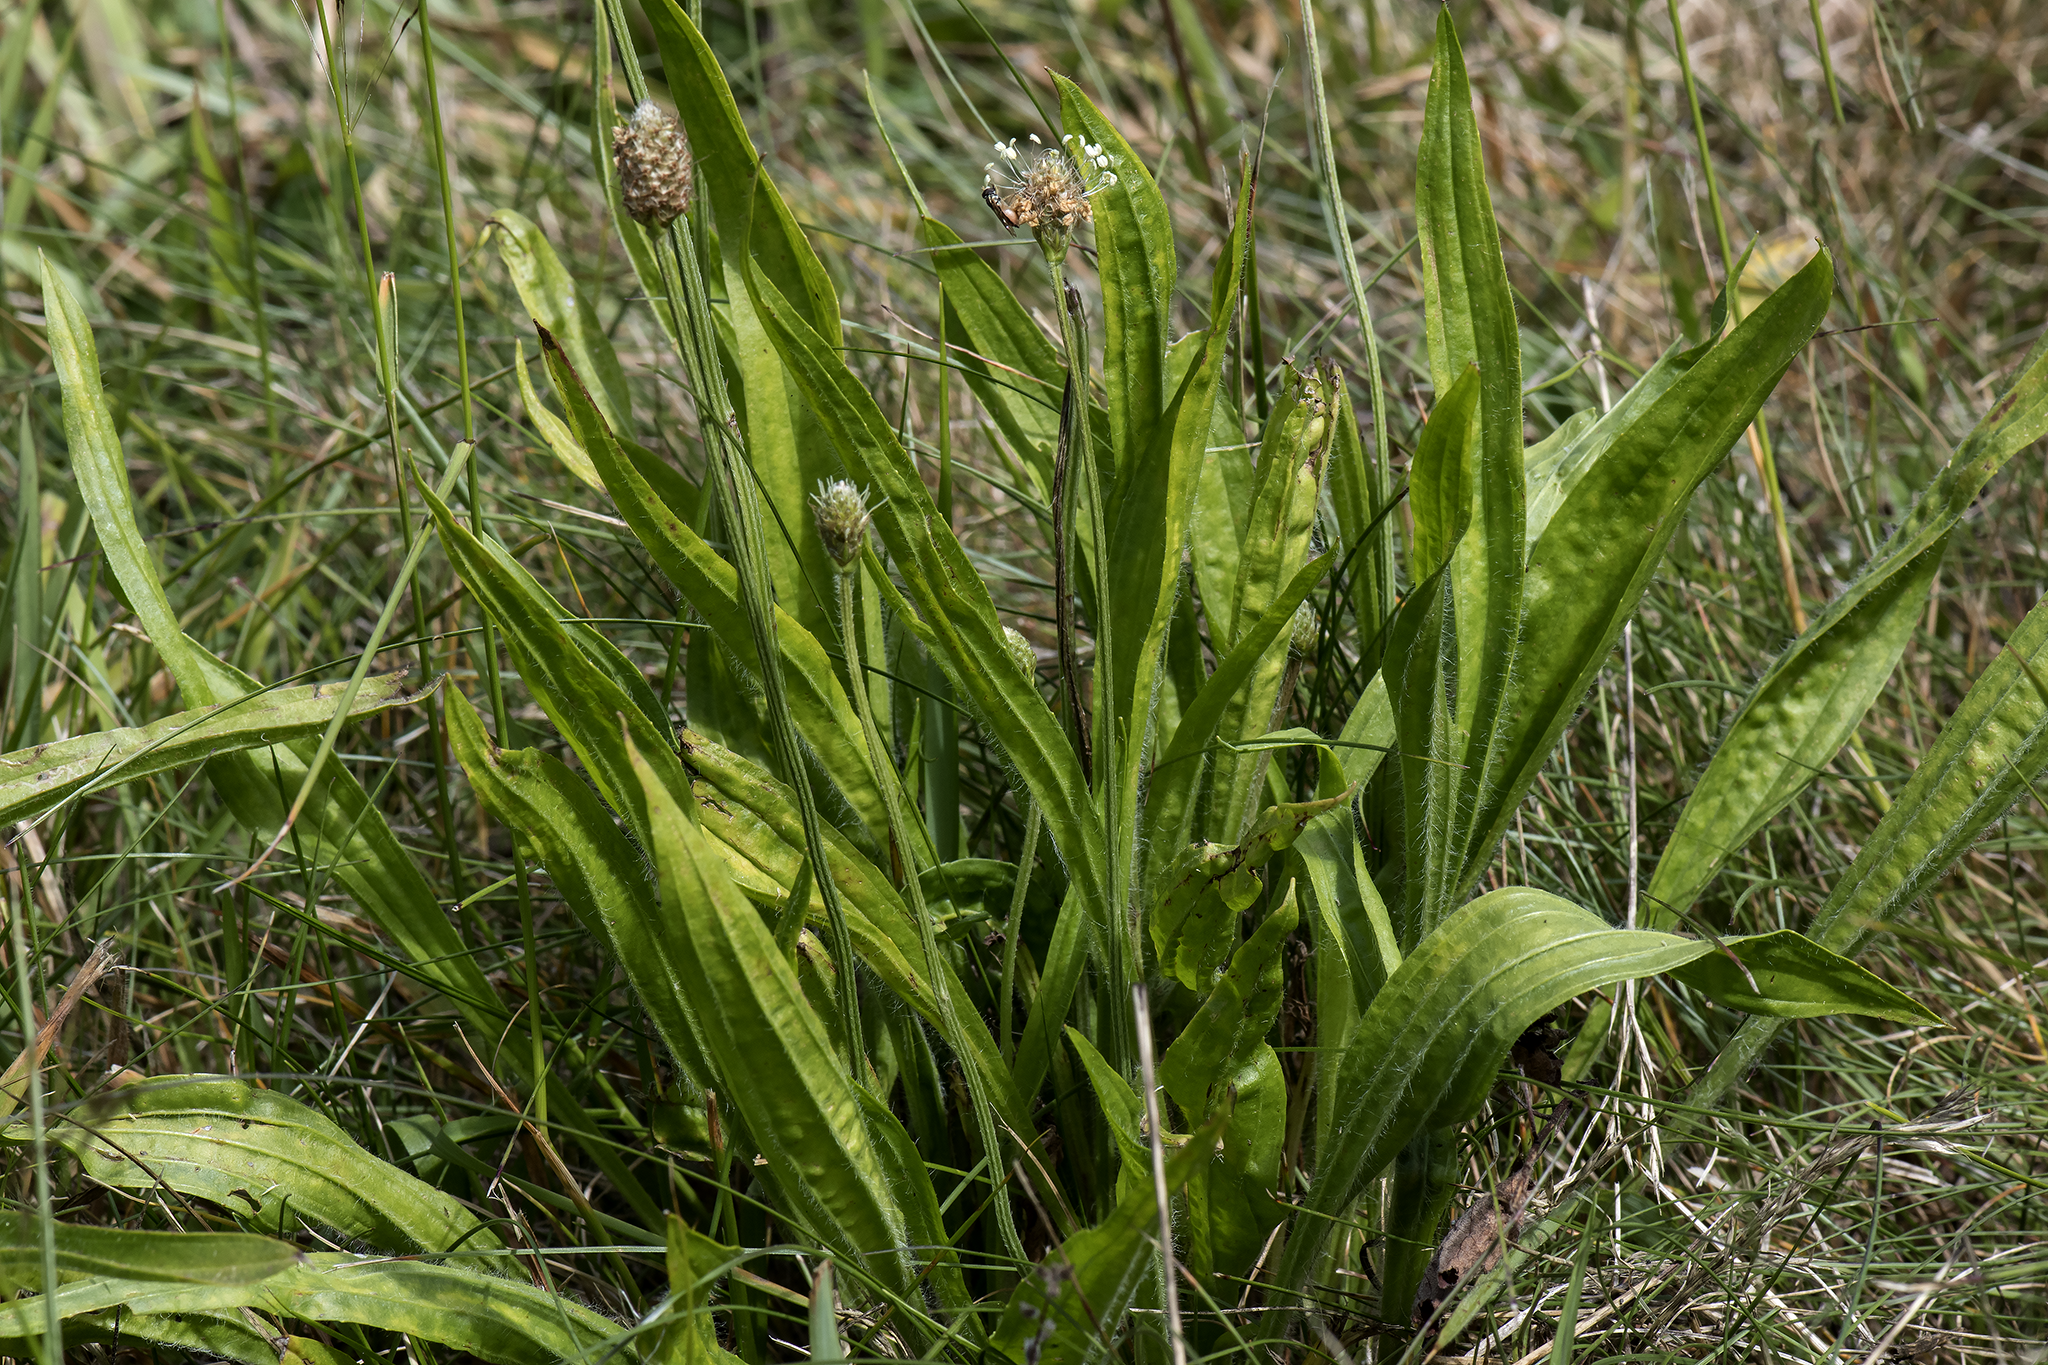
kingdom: Plantae
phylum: Tracheophyta
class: Magnoliopsida
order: Lamiales
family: Plantaginaceae
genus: Plantago
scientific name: Plantago lanceolata
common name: Ribwort plantain
